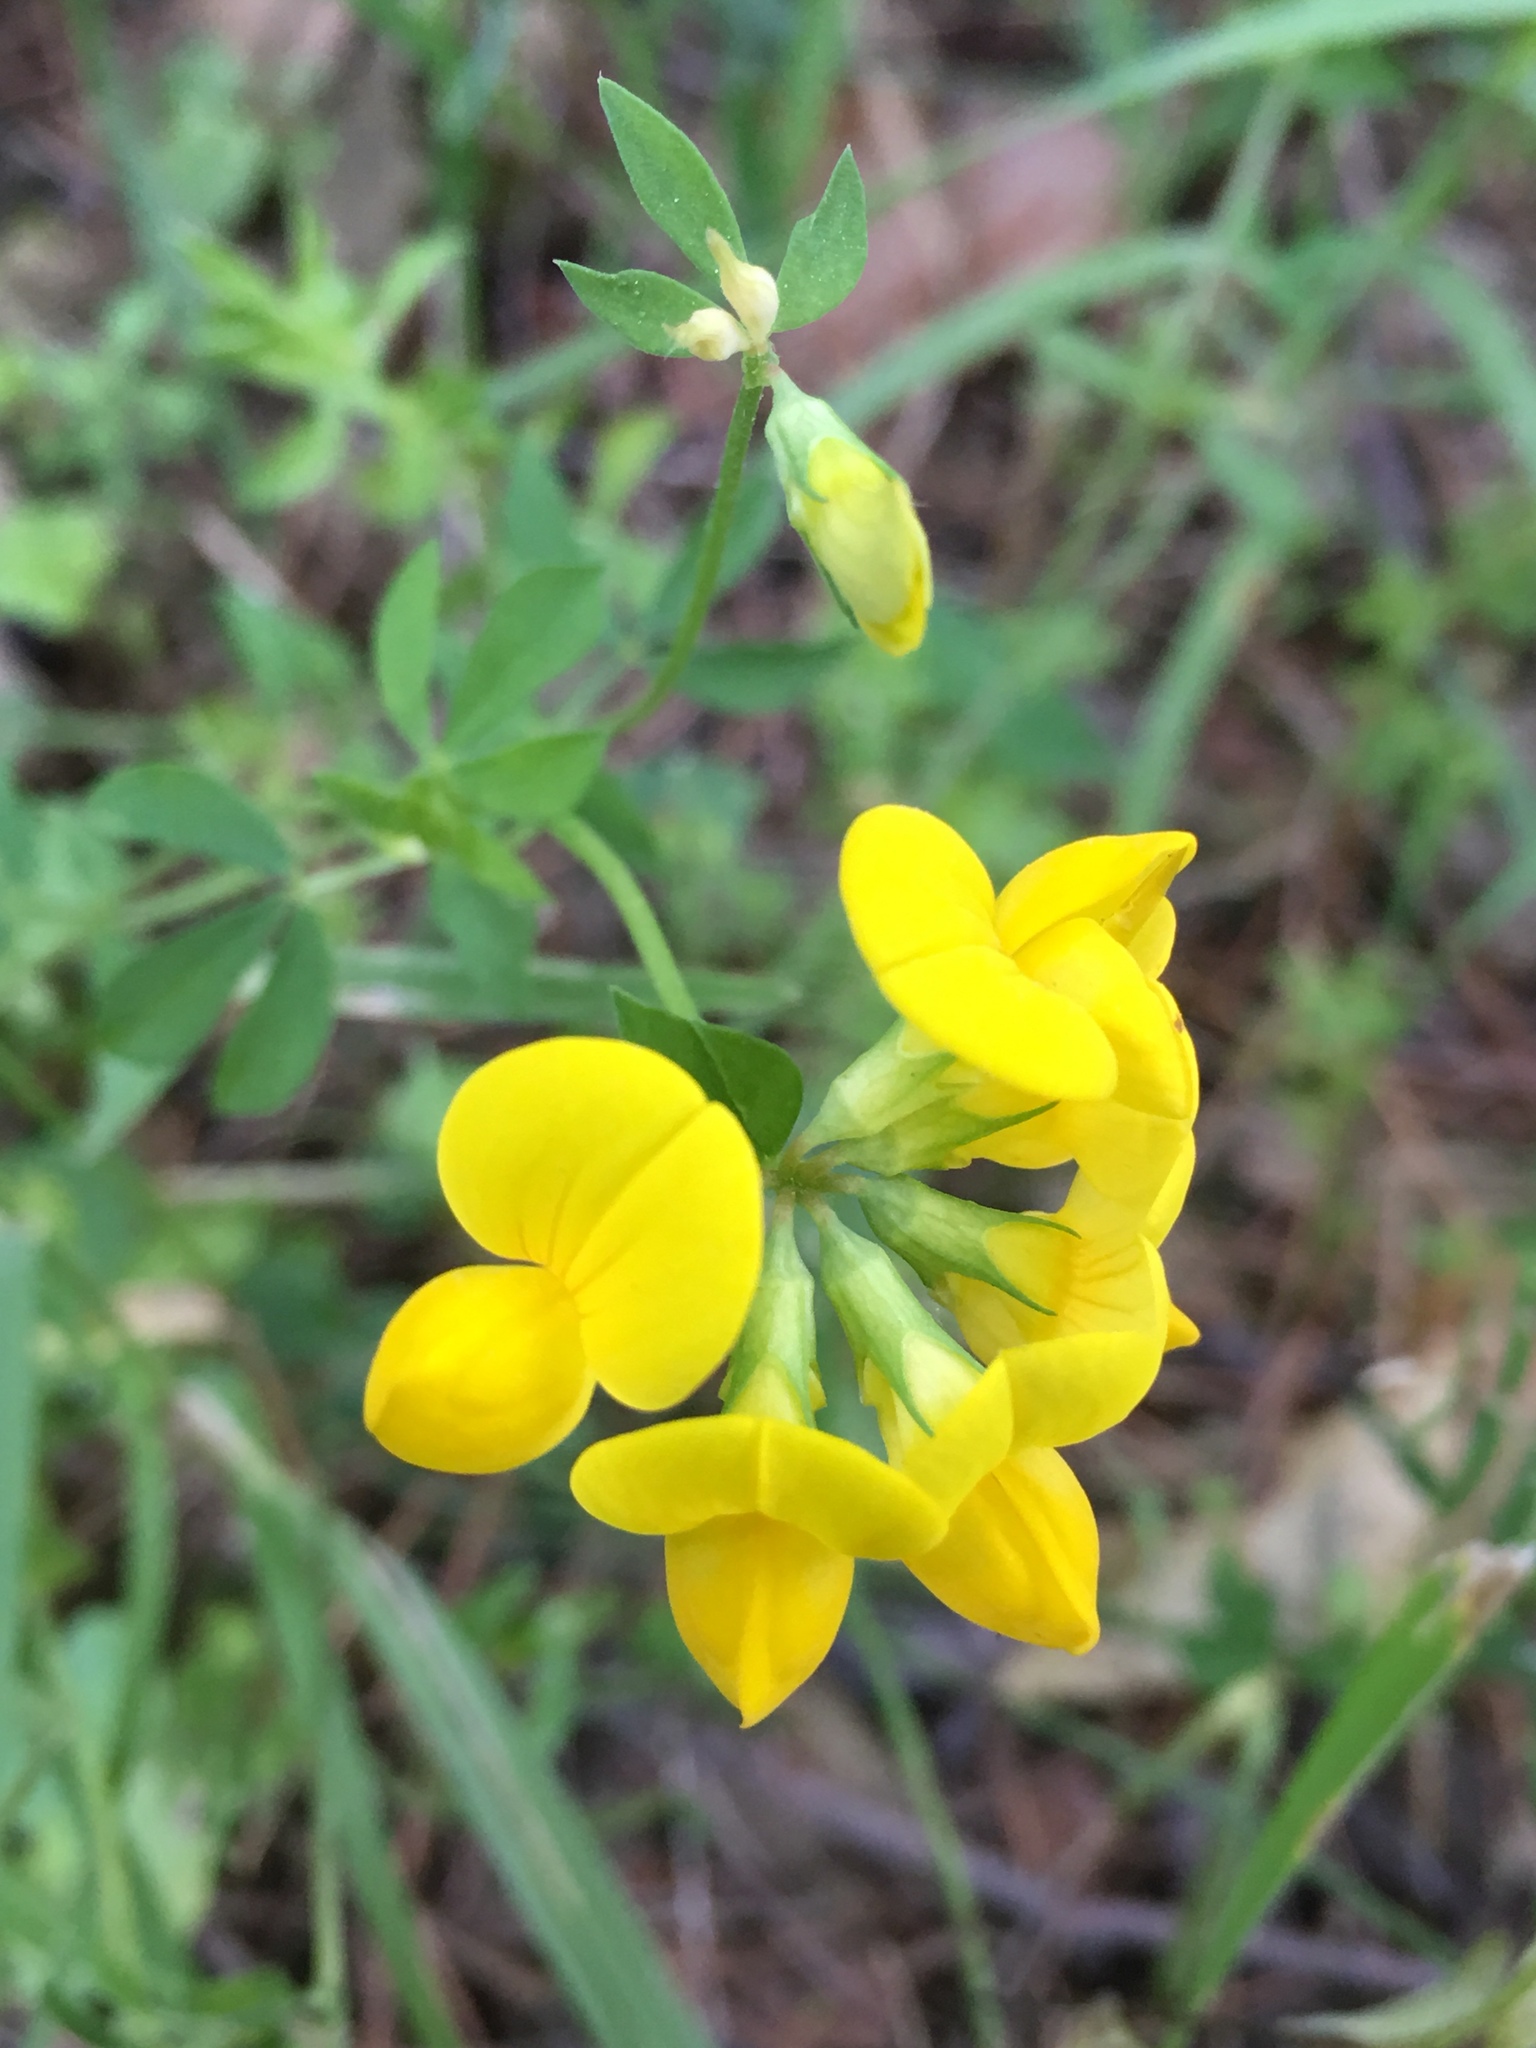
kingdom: Plantae
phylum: Tracheophyta
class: Magnoliopsida
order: Fabales
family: Fabaceae
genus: Lotus
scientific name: Lotus corniculatus
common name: Common bird's-foot-trefoil
